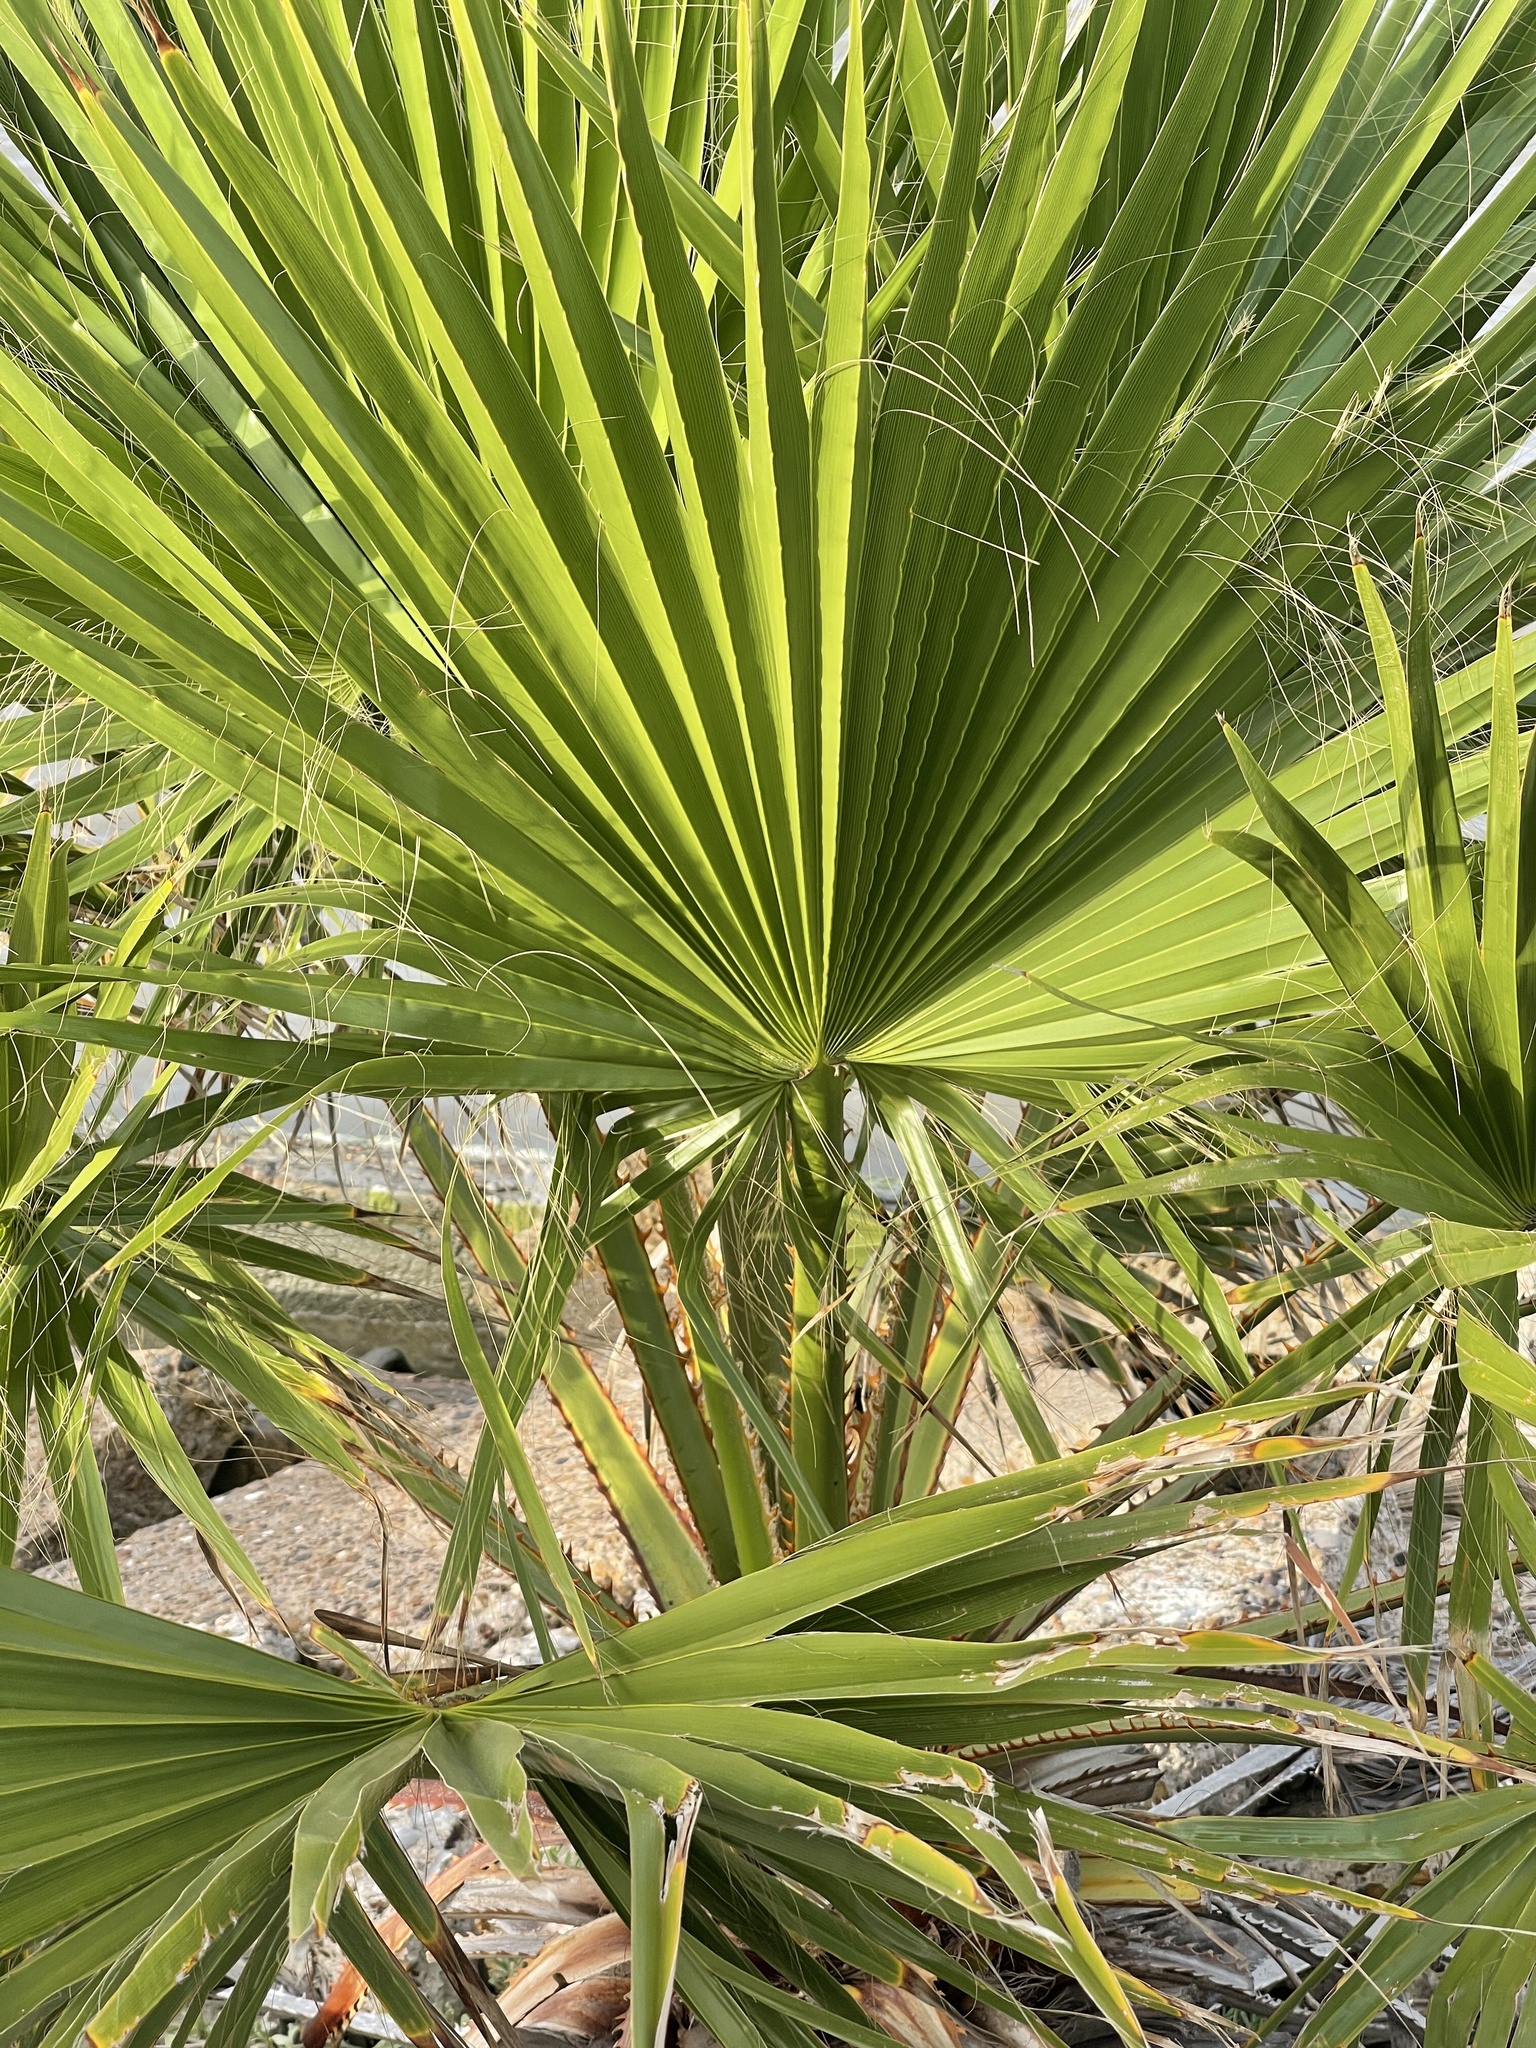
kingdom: Plantae
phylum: Tracheophyta
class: Liliopsida
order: Arecales
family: Arecaceae
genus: Washingtonia
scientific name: Washingtonia robusta
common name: Mexican fan palm
